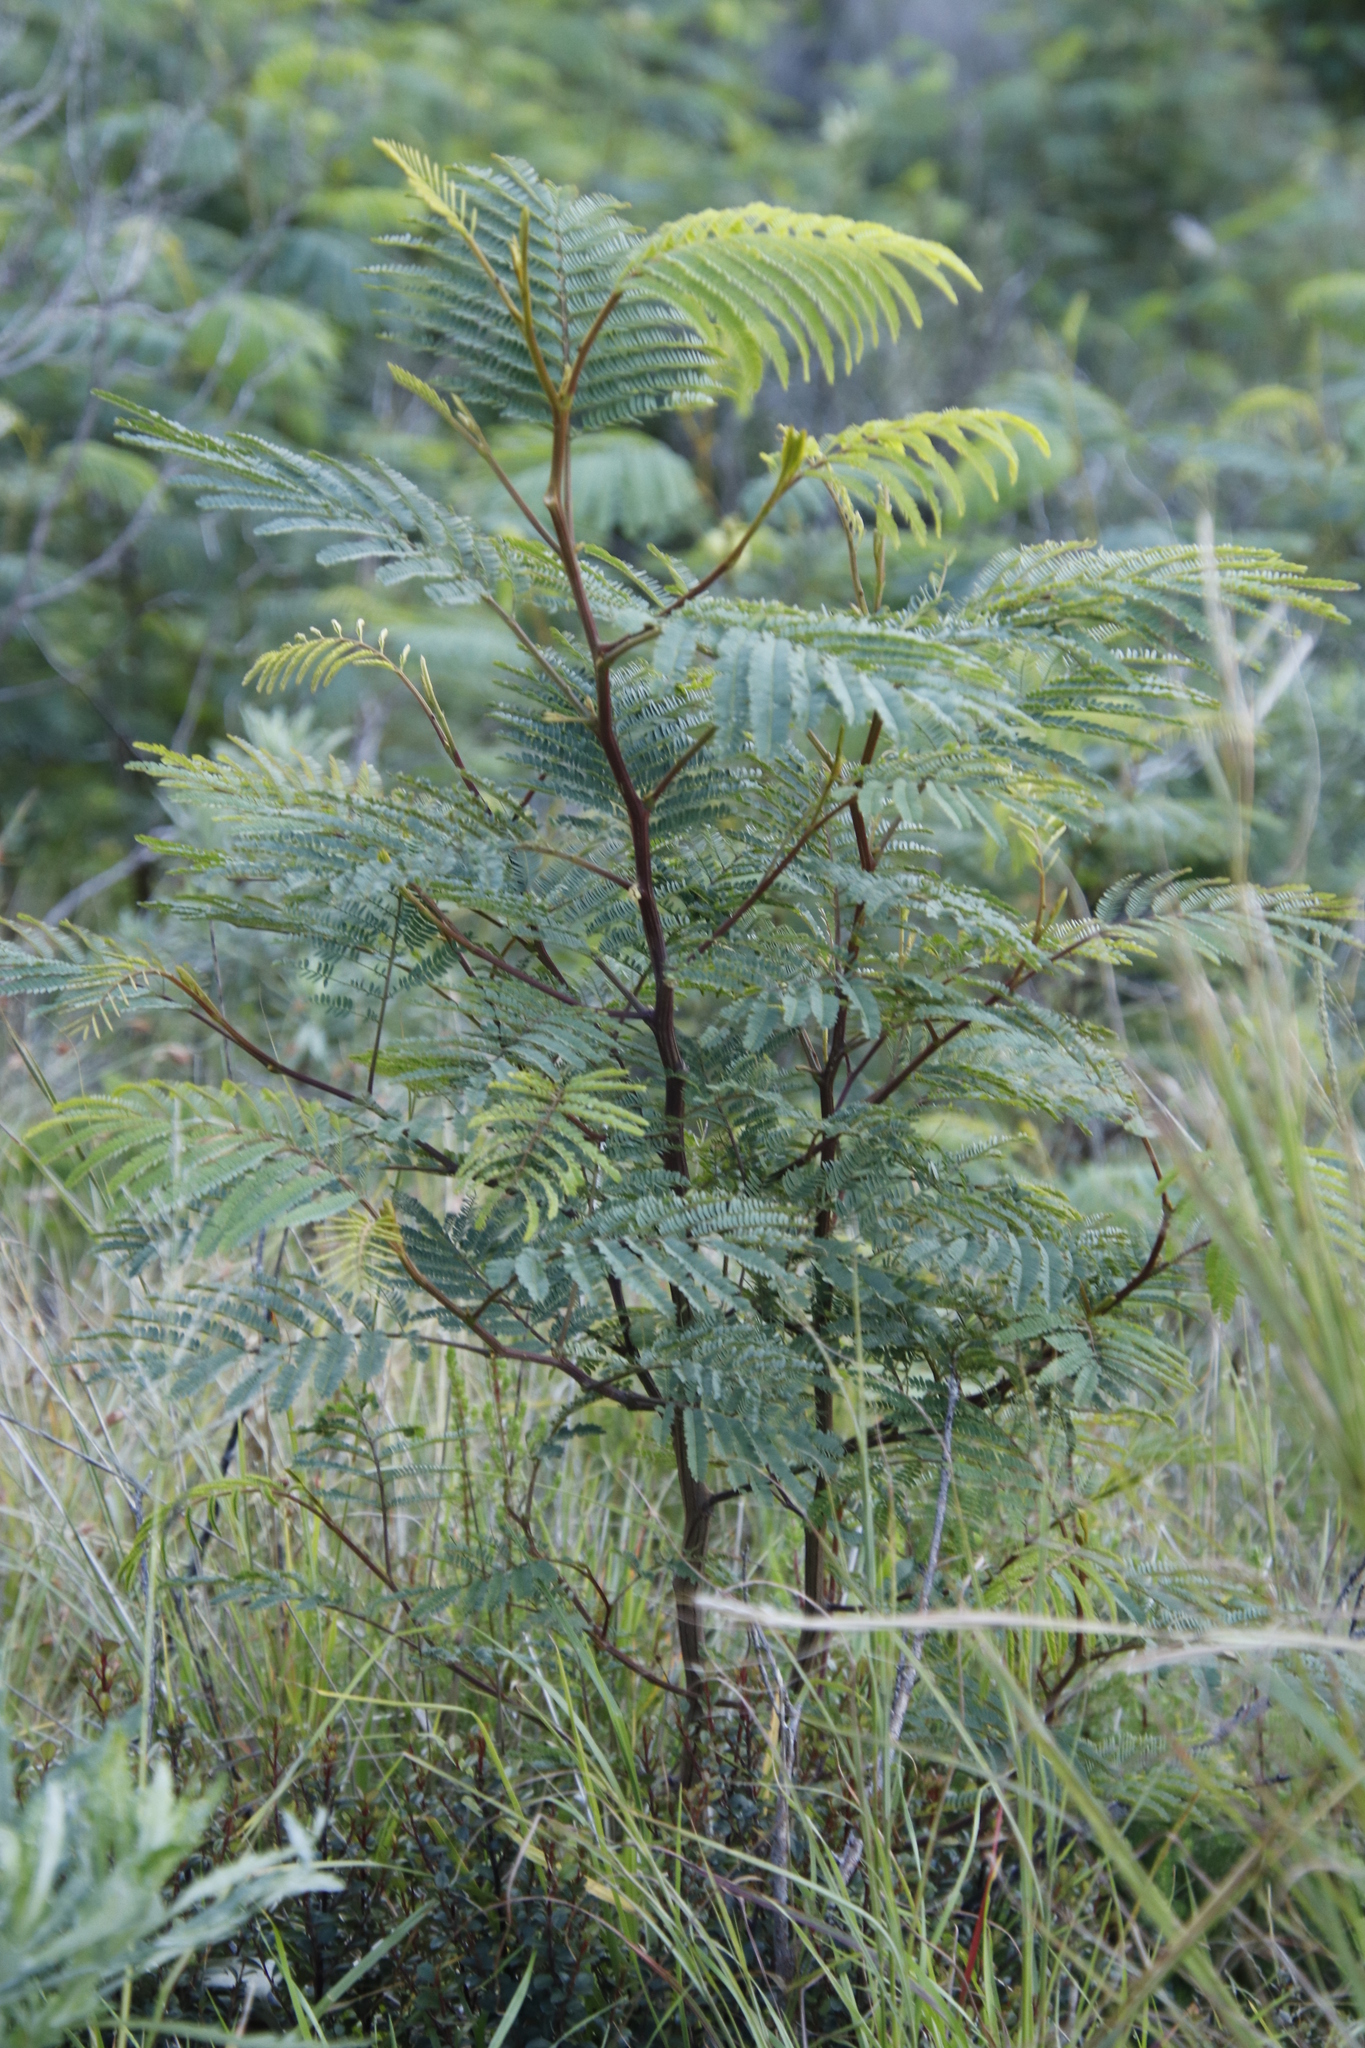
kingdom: Plantae
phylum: Tracheophyta
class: Magnoliopsida
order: Fabales
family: Fabaceae
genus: Paraserianthes
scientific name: Paraserianthes lophantha
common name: Plume albizia
